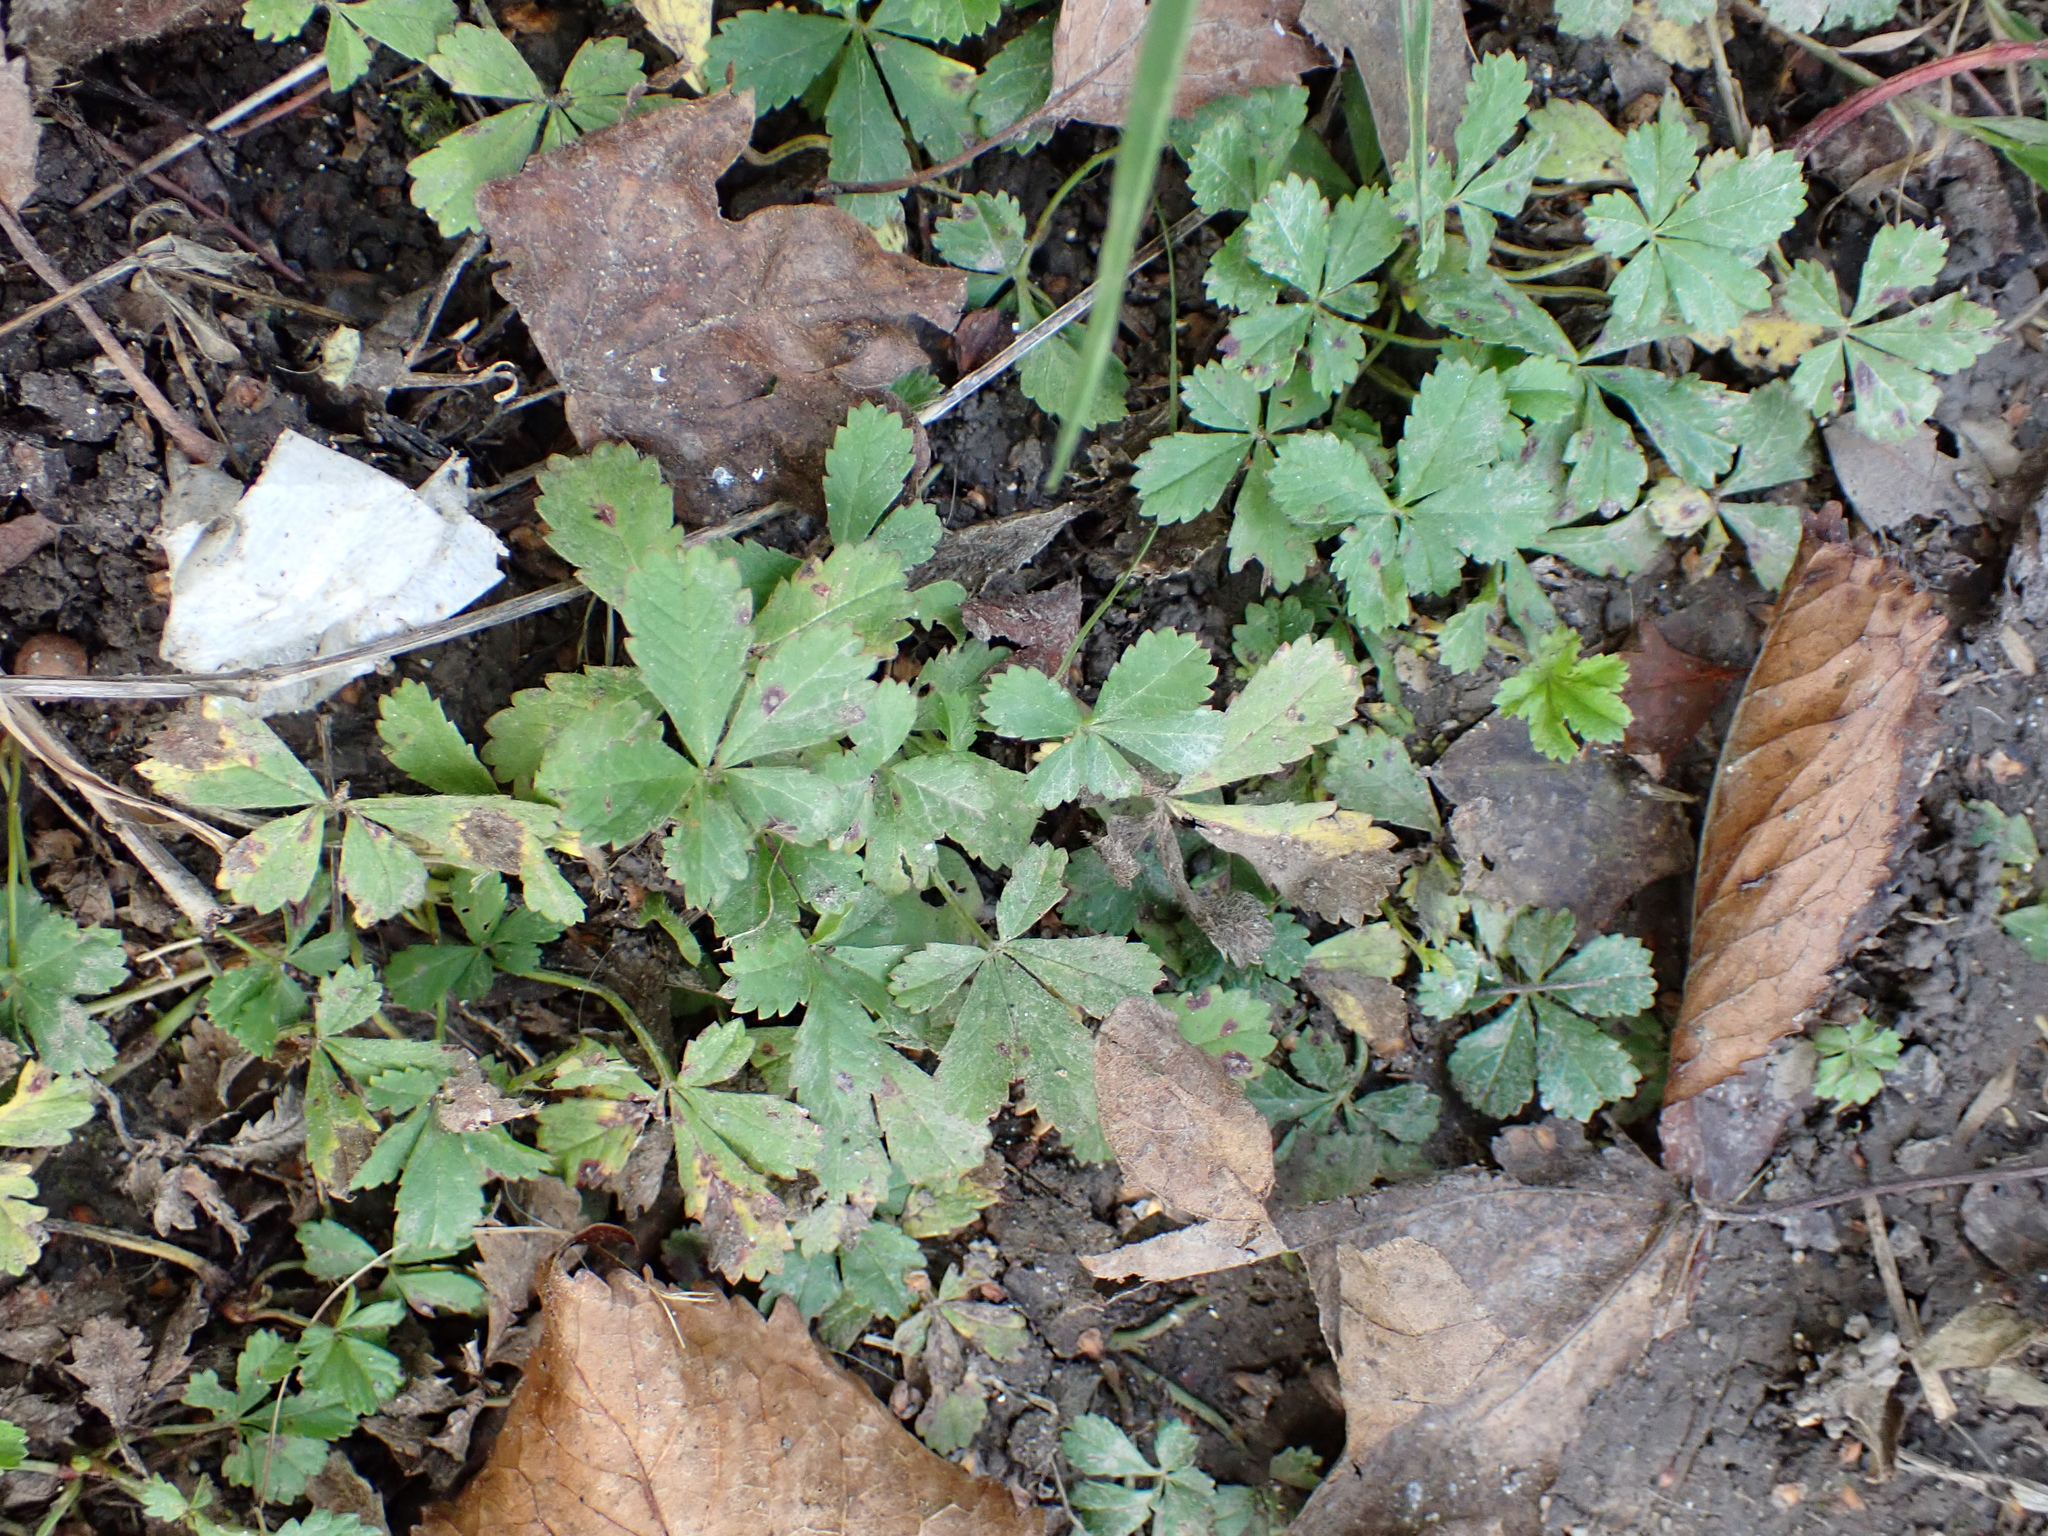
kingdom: Plantae
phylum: Tracheophyta
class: Magnoliopsida
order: Rosales
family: Rosaceae
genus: Potentilla
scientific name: Potentilla reptans
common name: Creeping cinquefoil
